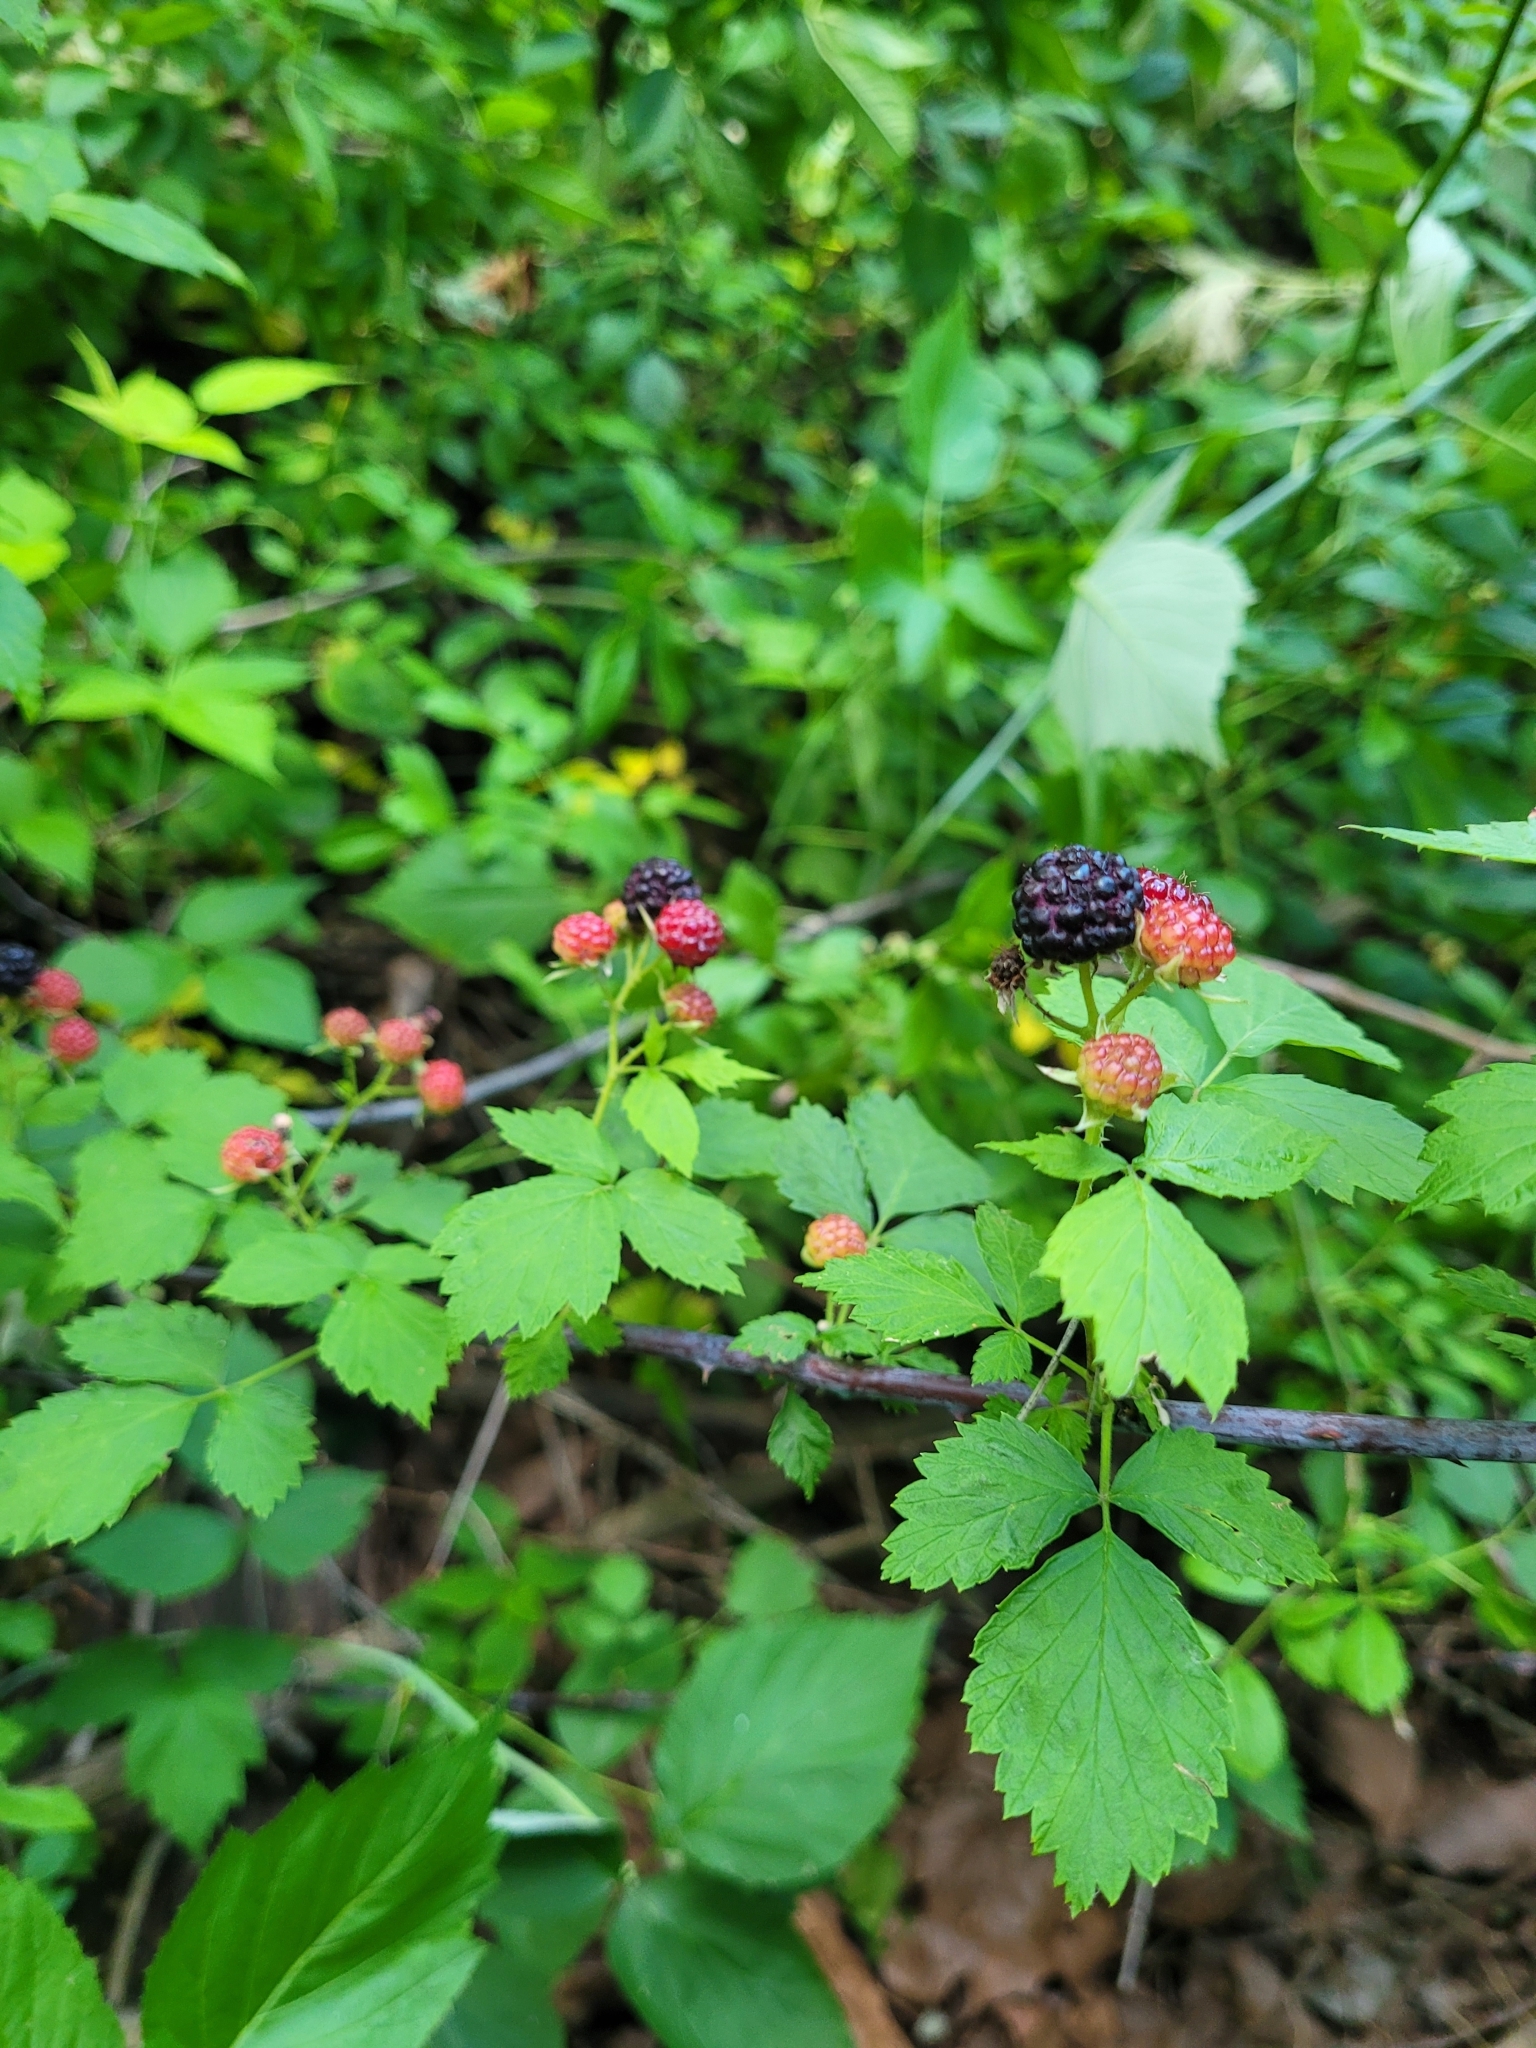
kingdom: Plantae
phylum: Tracheophyta
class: Magnoliopsida
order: Rosales
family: Rosaceae
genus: Rubus
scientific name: Rubus occidentalis
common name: Black raspberry
